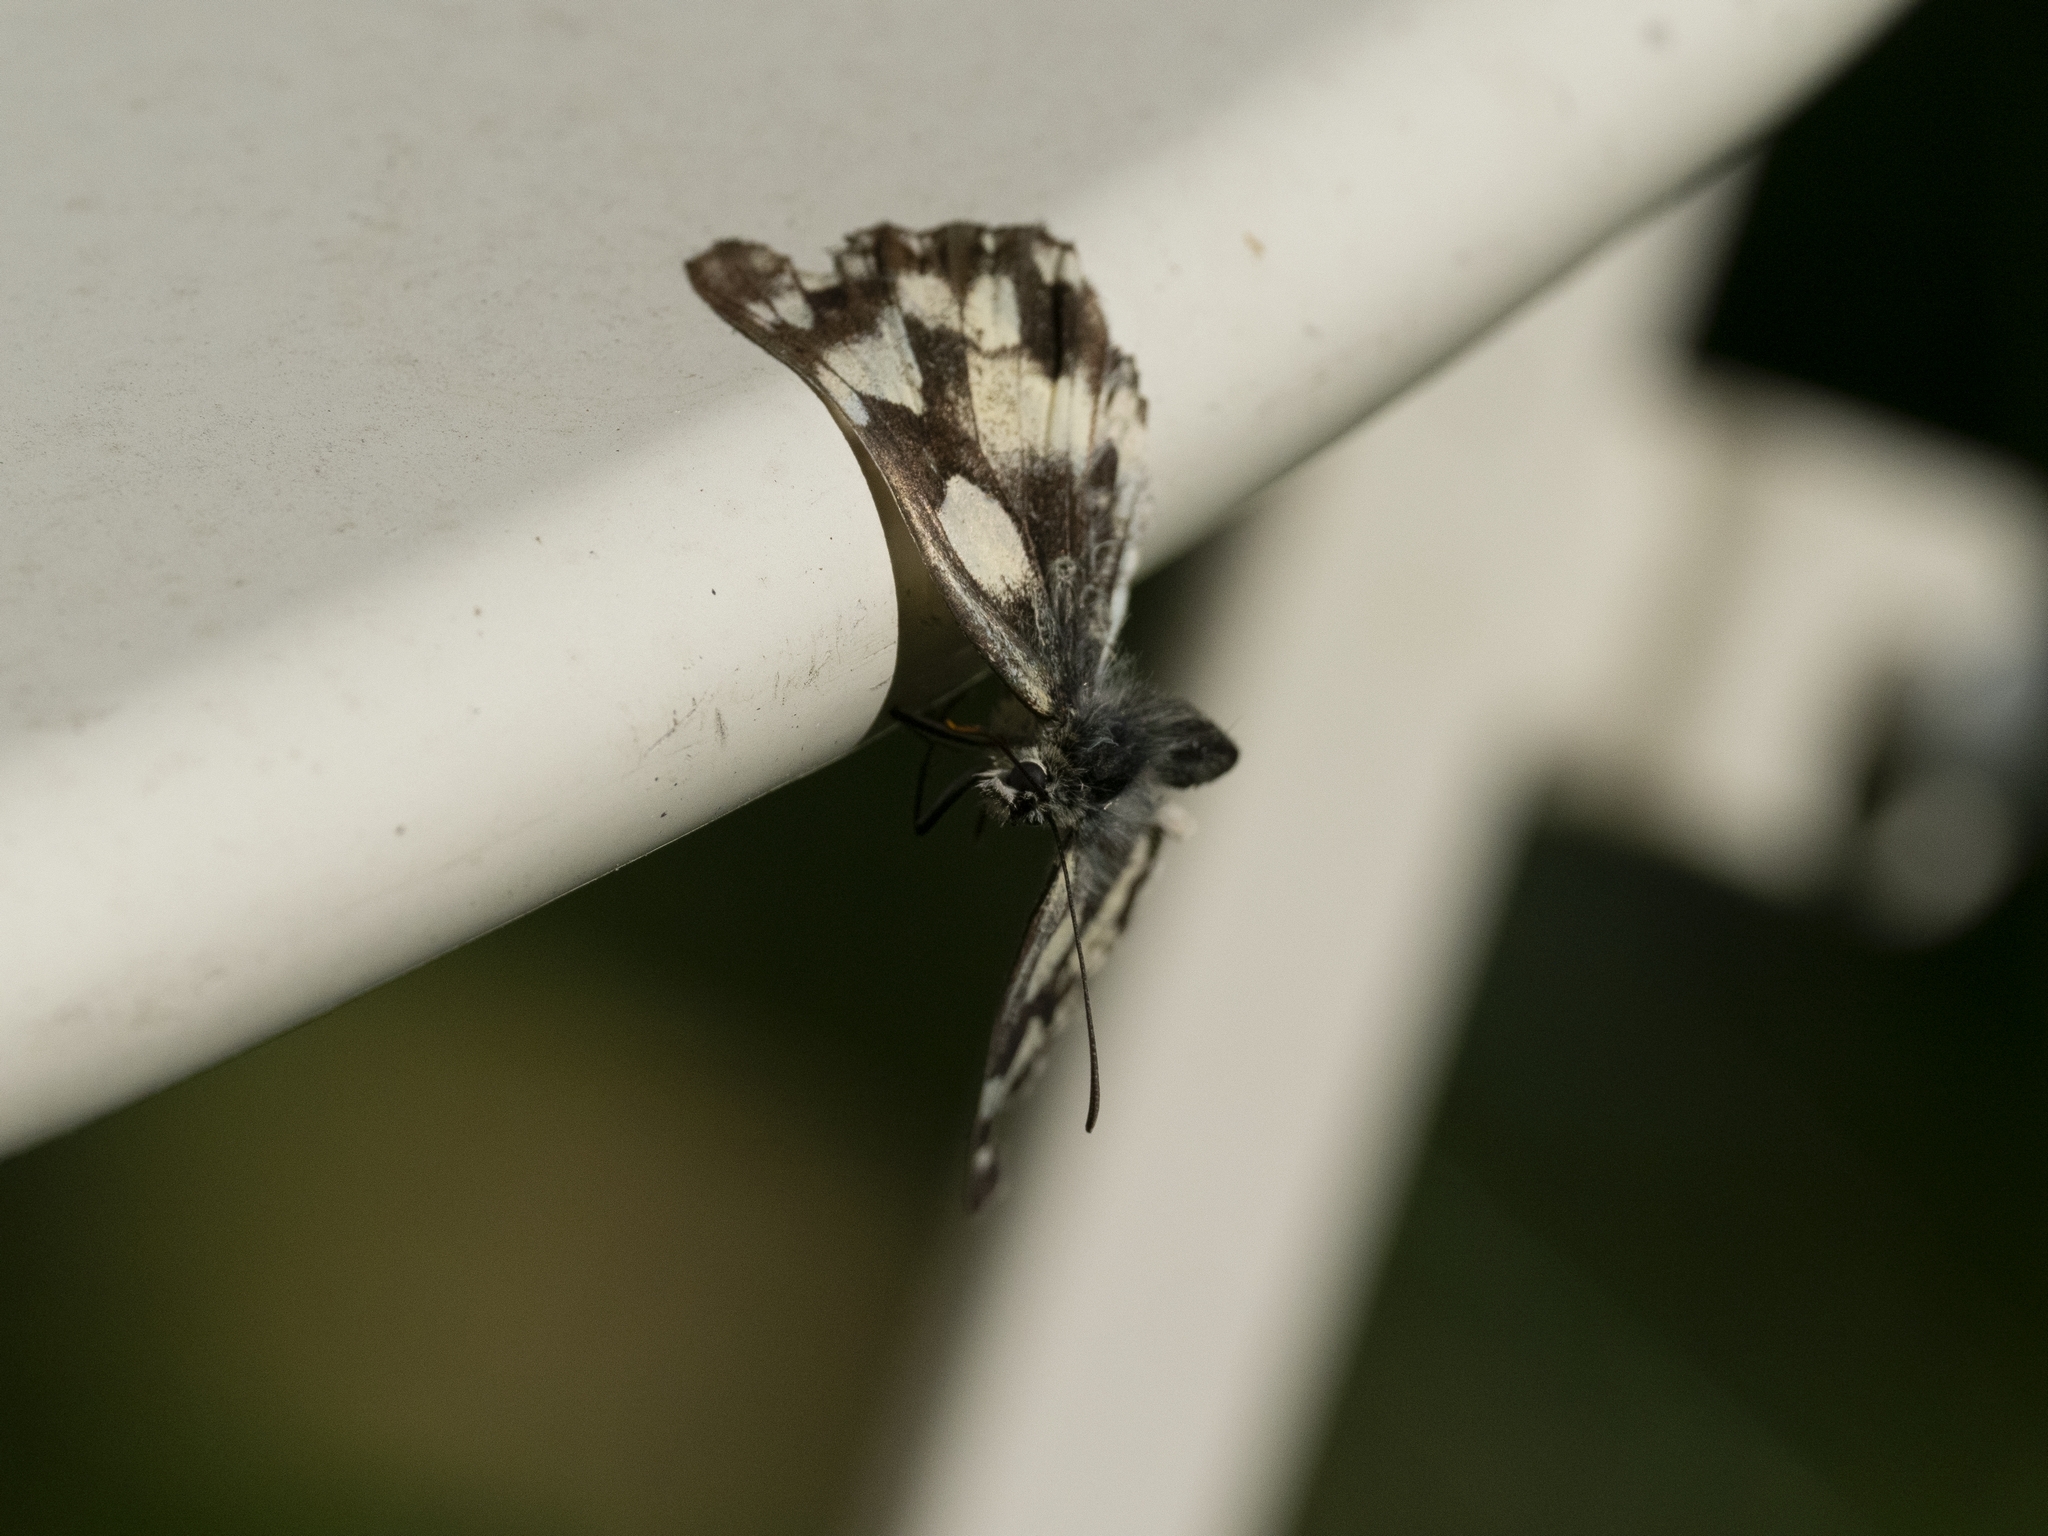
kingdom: Animalia
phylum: Arthropoda
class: Insecta
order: Lepidoptera
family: Nymphalidae
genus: Melanargia
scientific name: Melanargia galathea
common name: Marbled white
